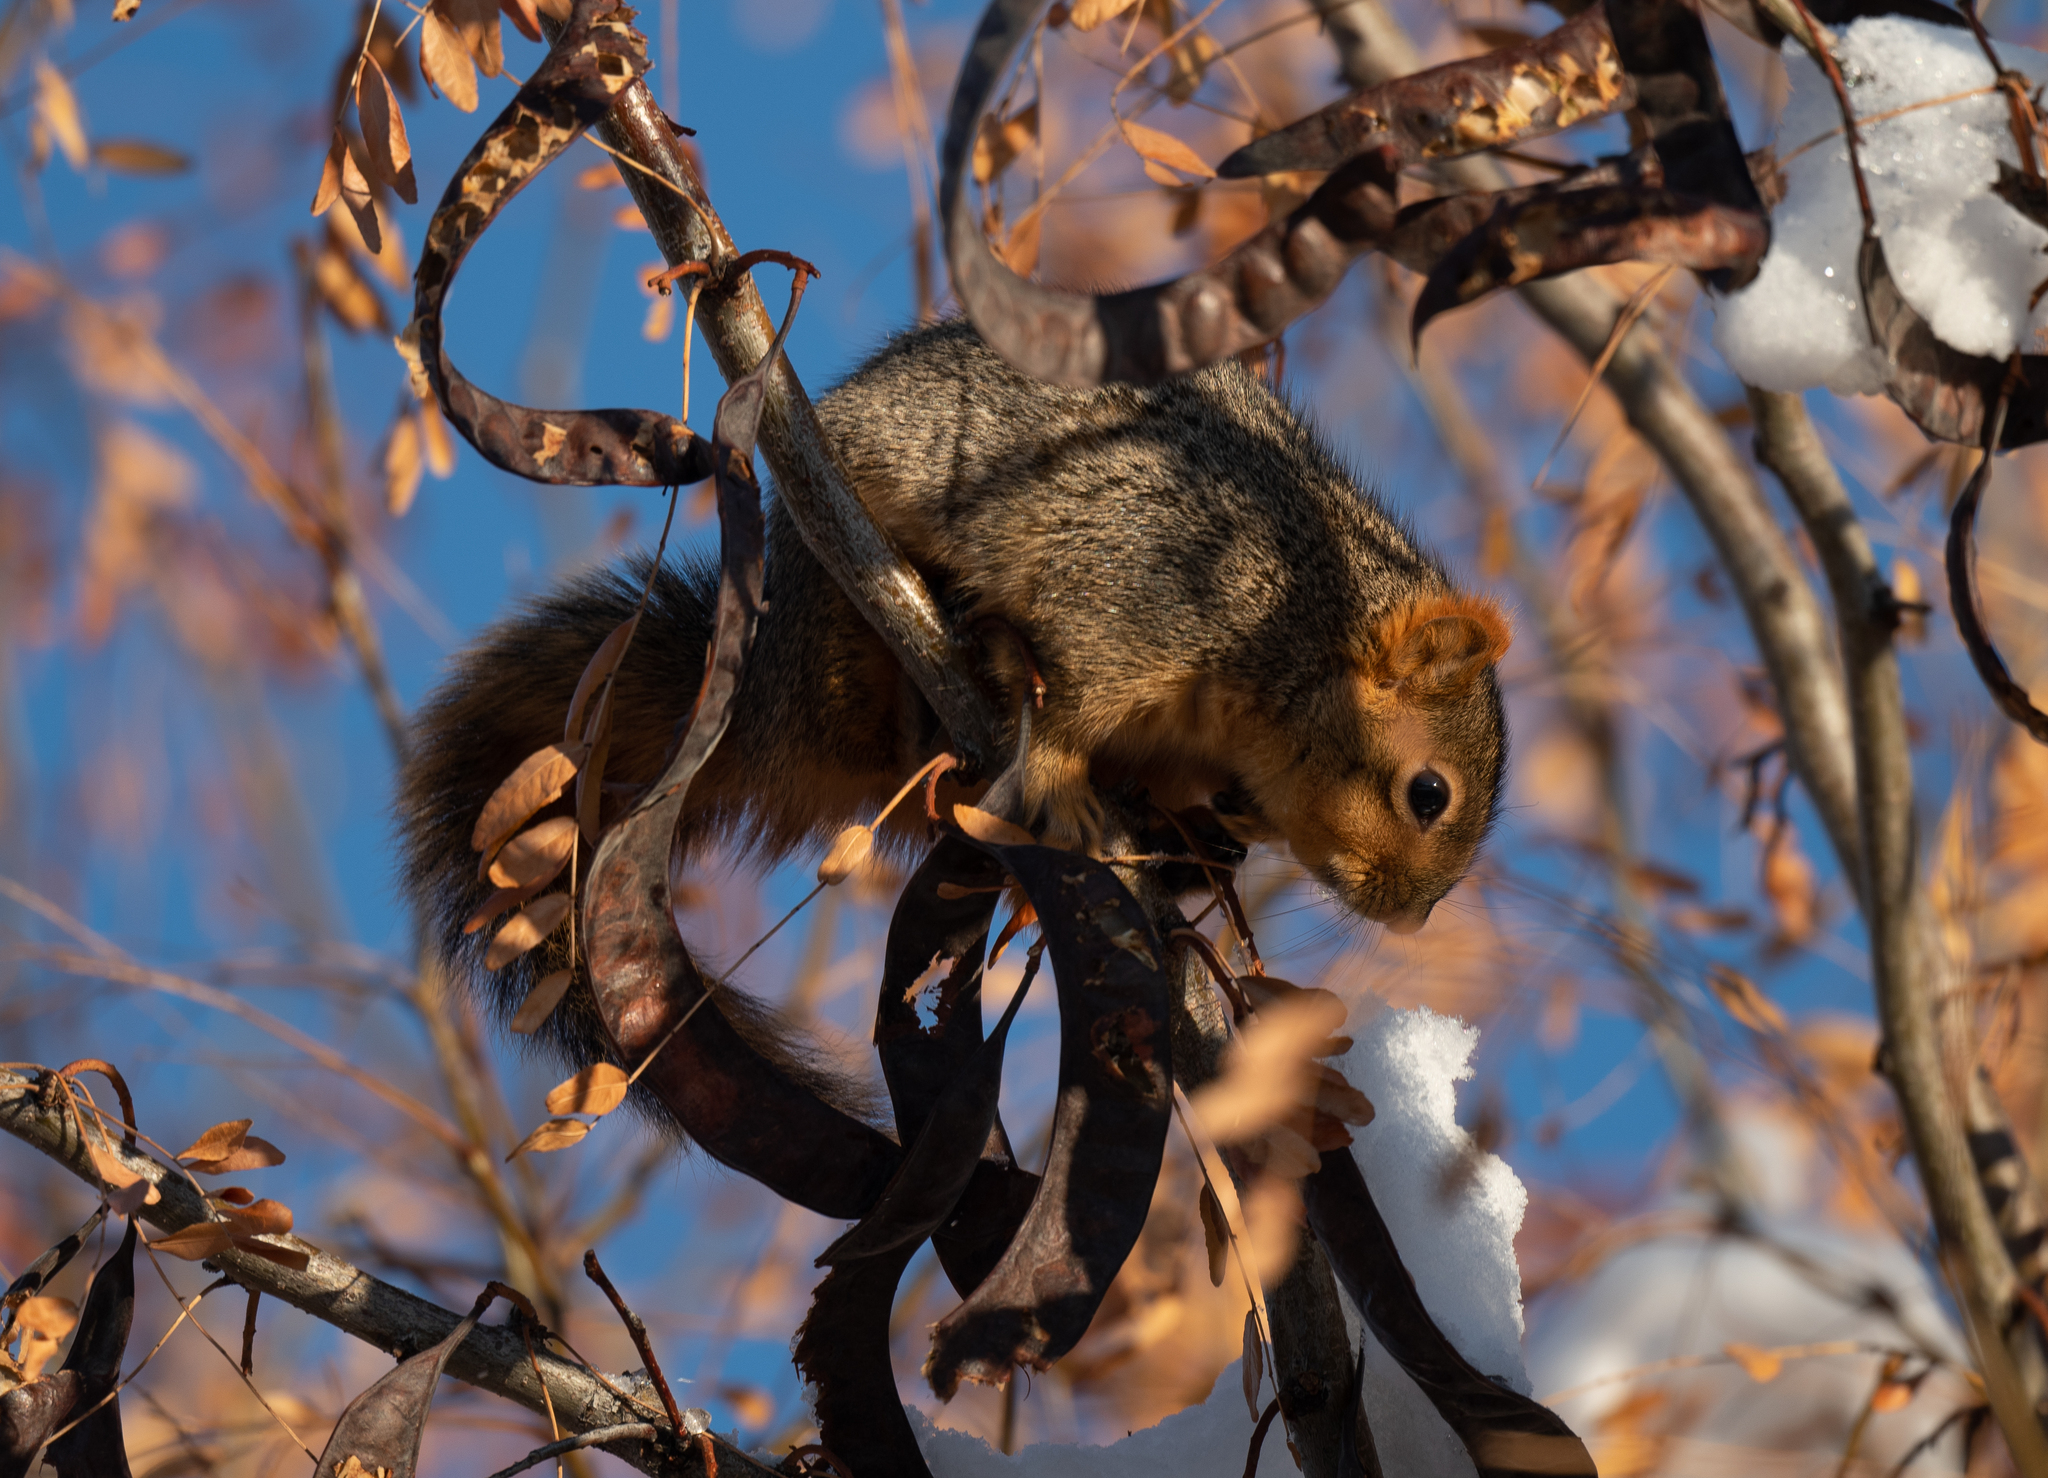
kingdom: Animalia
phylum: Chordata
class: Mammalia
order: Rodentia
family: Sciuridae
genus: Sciurus
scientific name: Sciurus niger
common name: Fox squirrel
